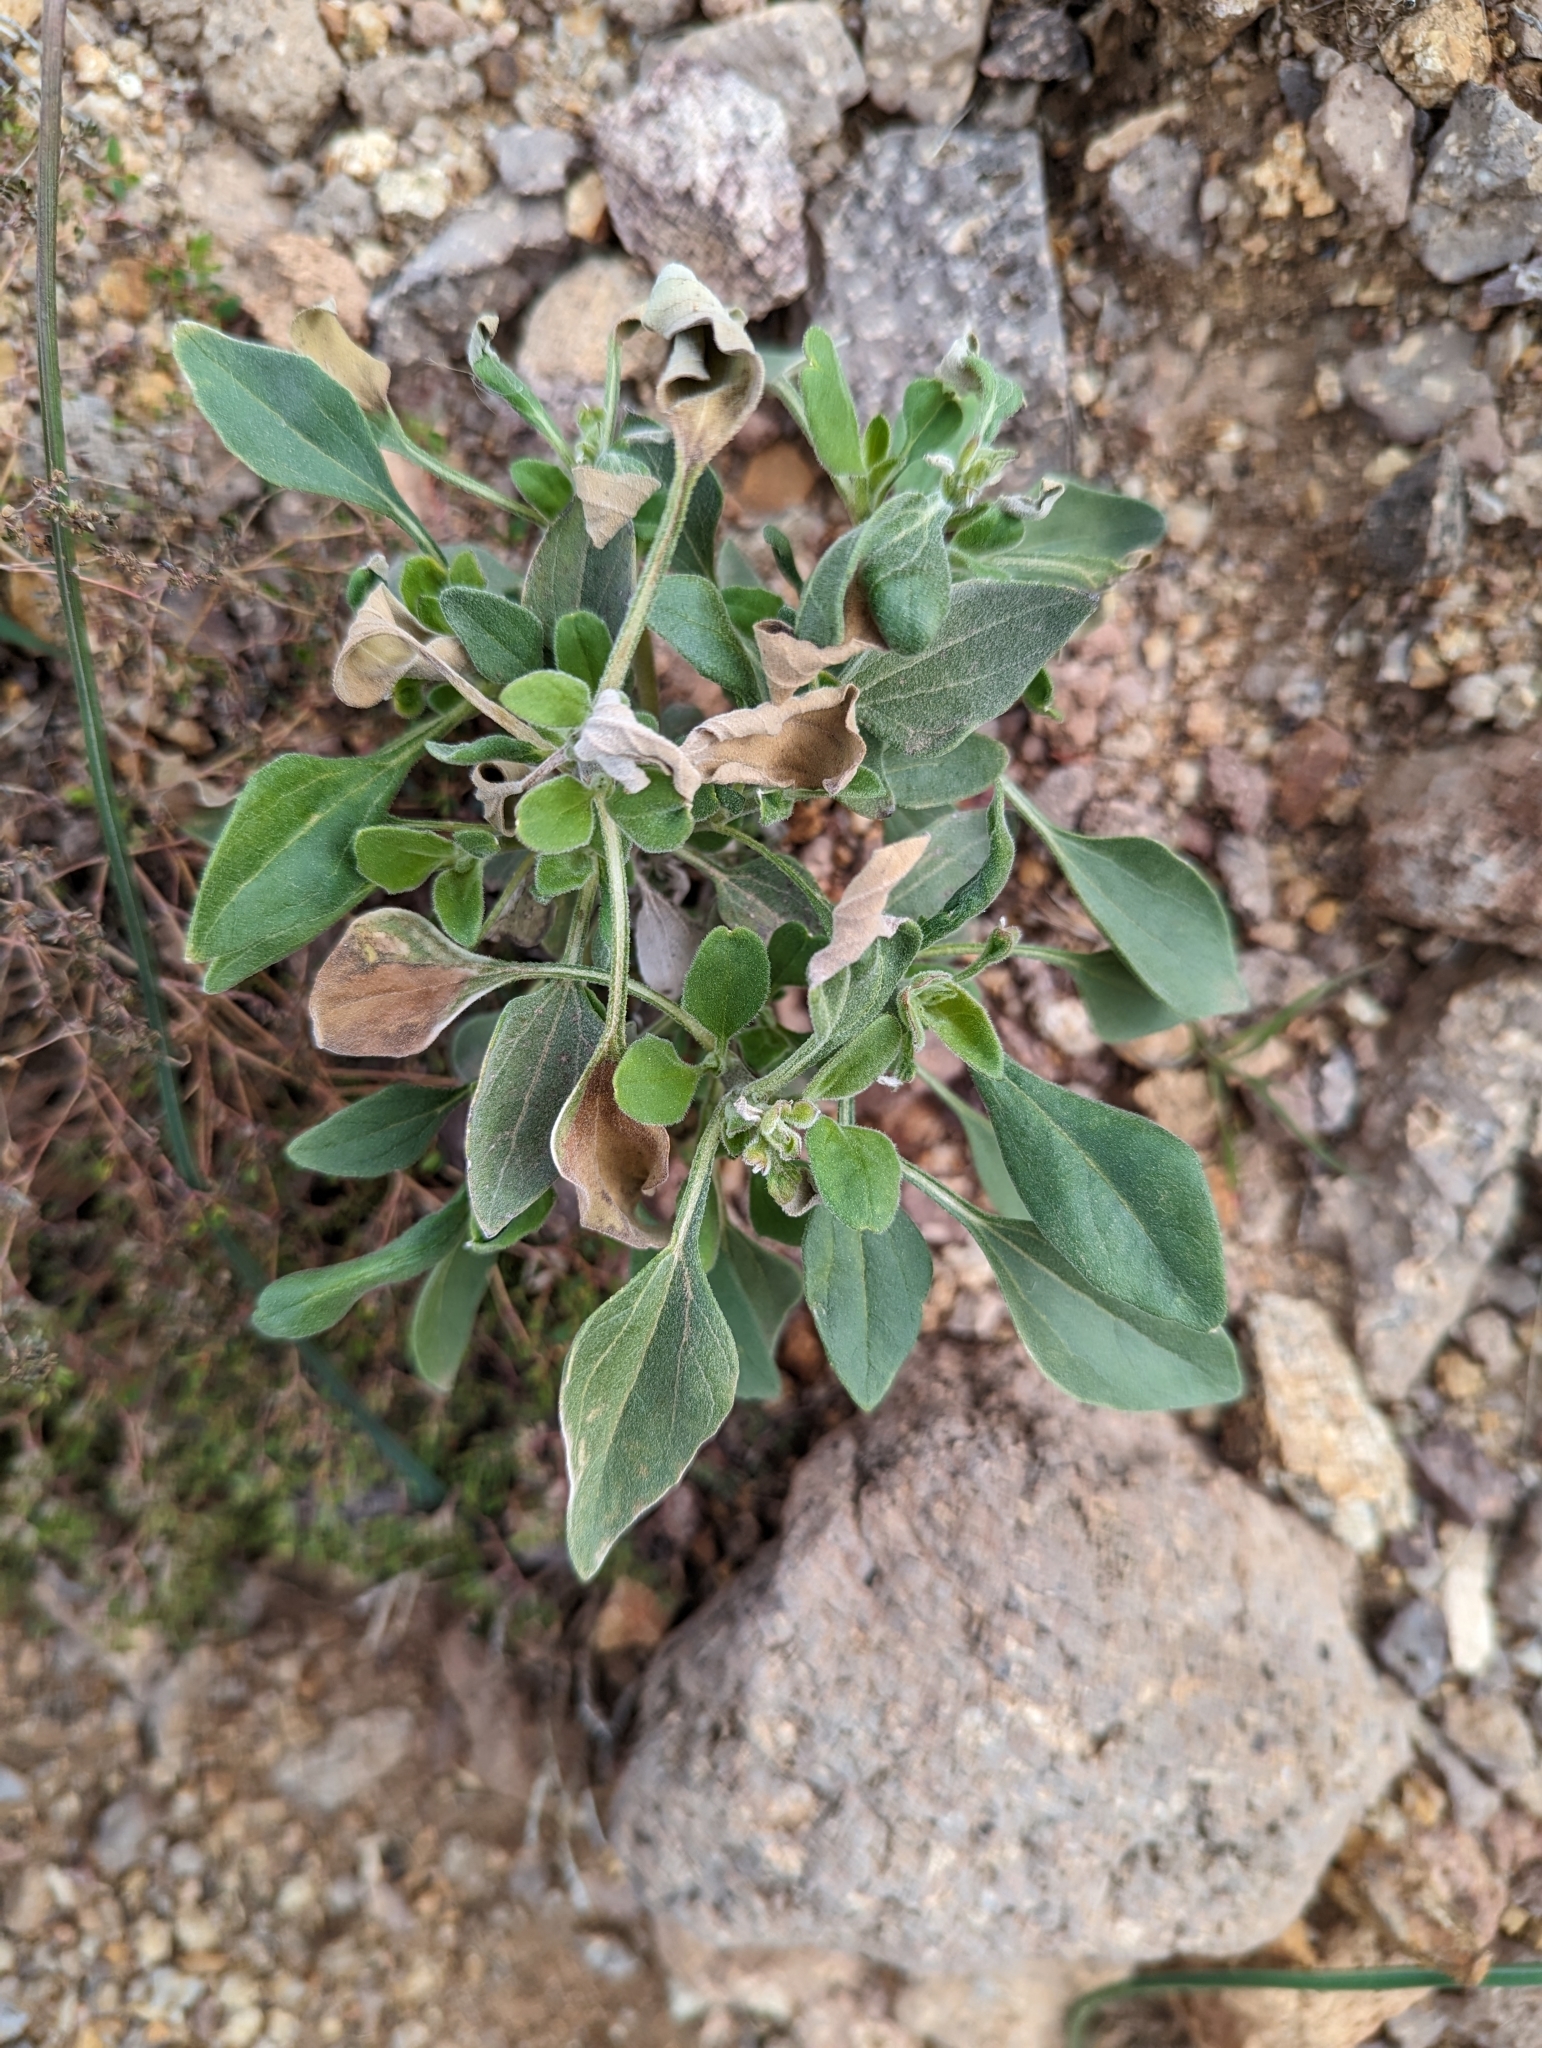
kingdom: Plantae
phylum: Tracheophyta
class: Magnoliopsida
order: Asterales
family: Asteraceae
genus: Encelia
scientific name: Encelia farinosa
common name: Brittlebush
